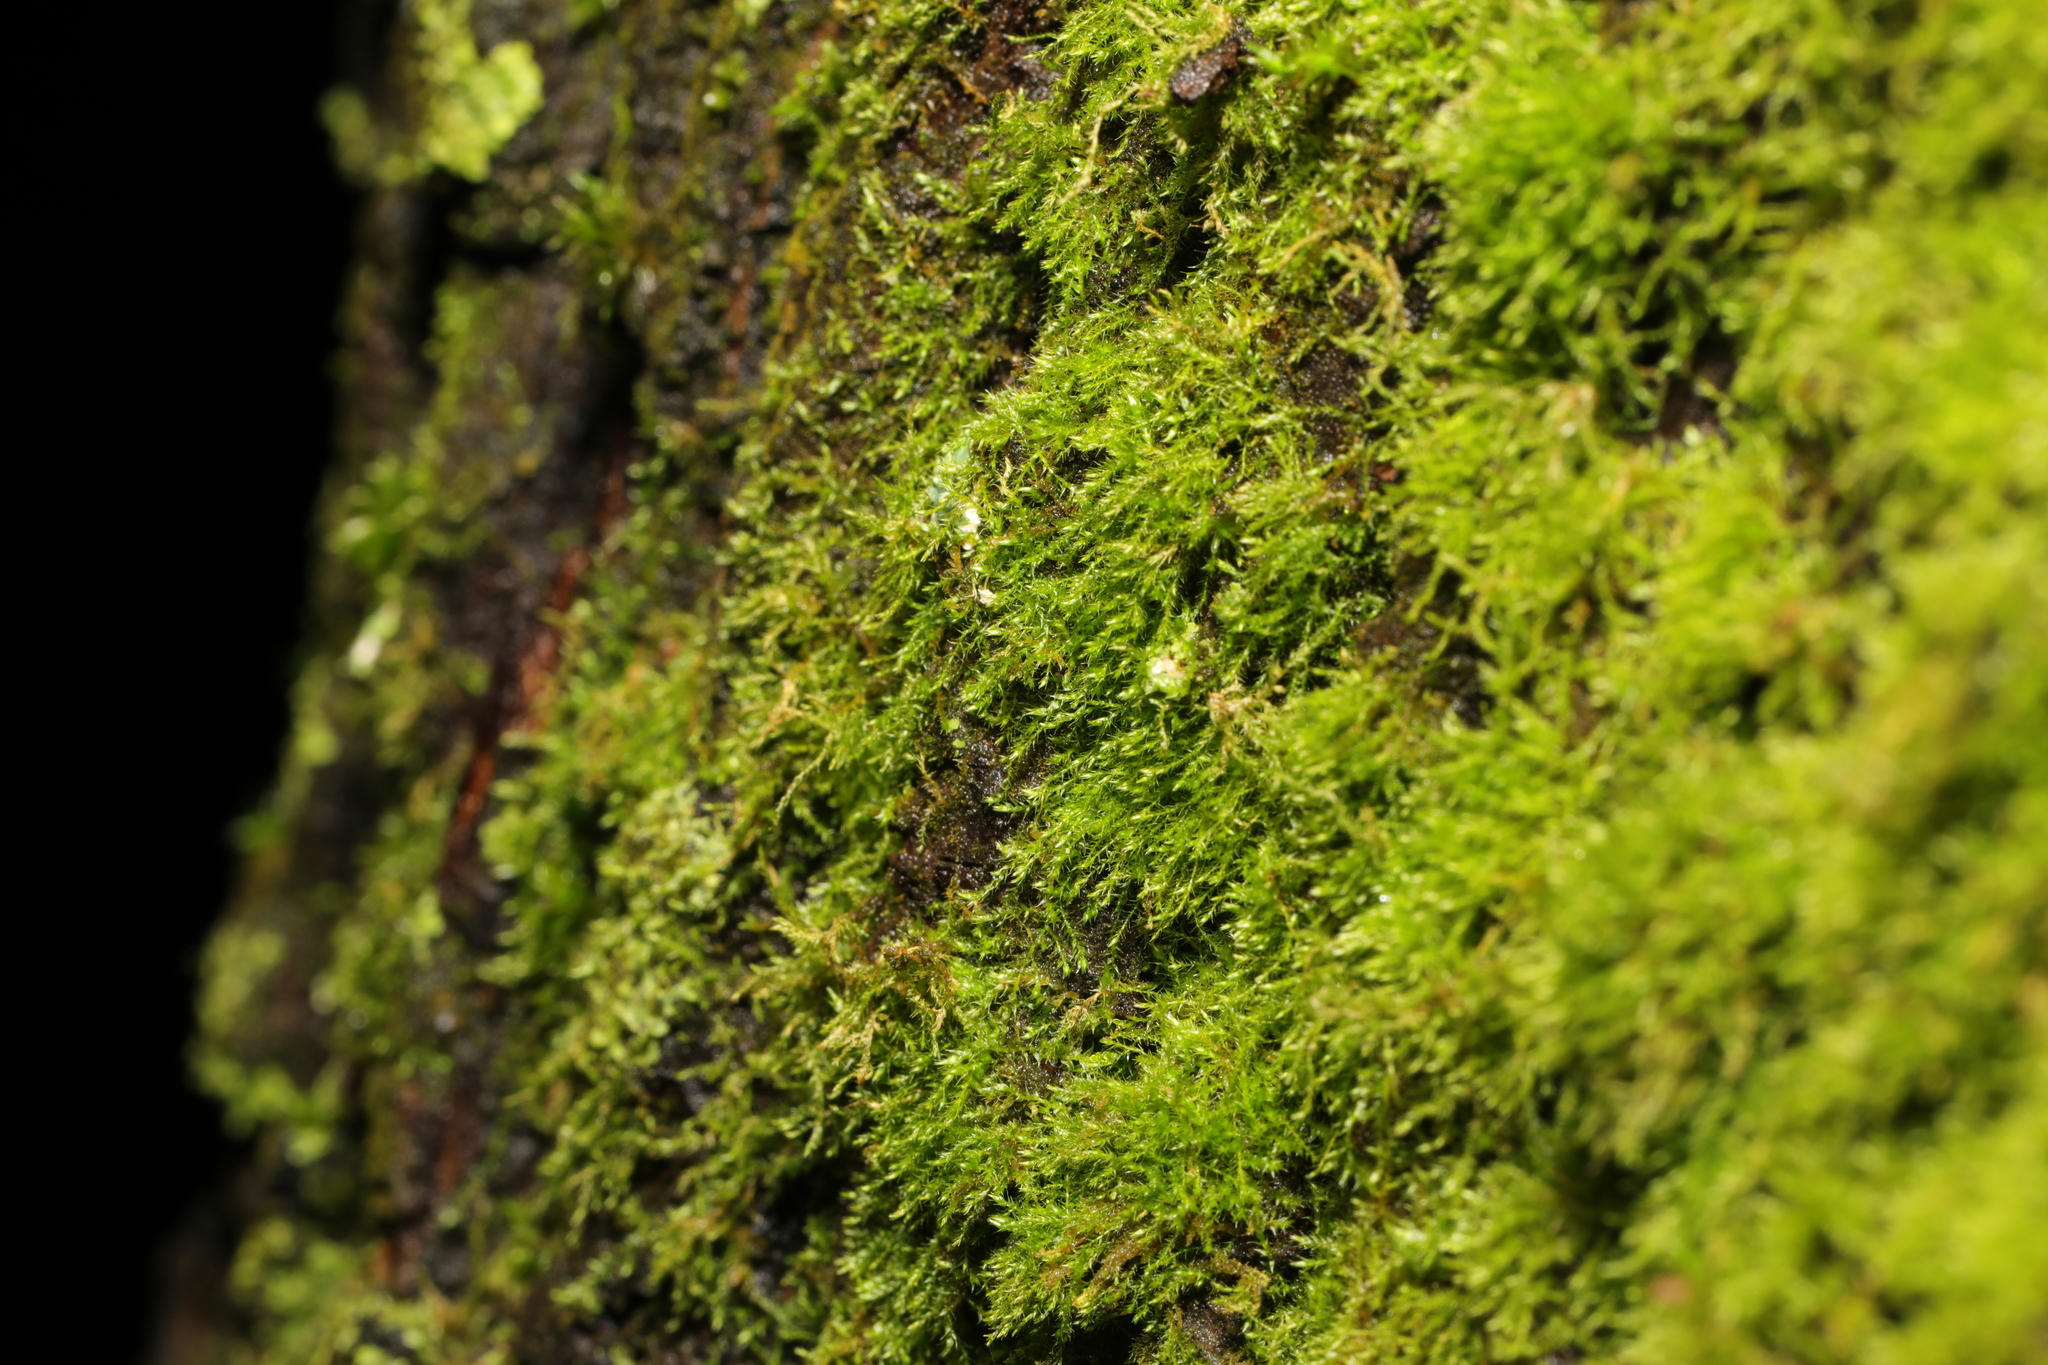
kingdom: Plantae
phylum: Bryophyta
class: Bryopsida
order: Hypnales
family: Amblystegiaceae
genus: Amblystegium
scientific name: Amblystegium serpens
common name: Jurkatzka's feather moss
